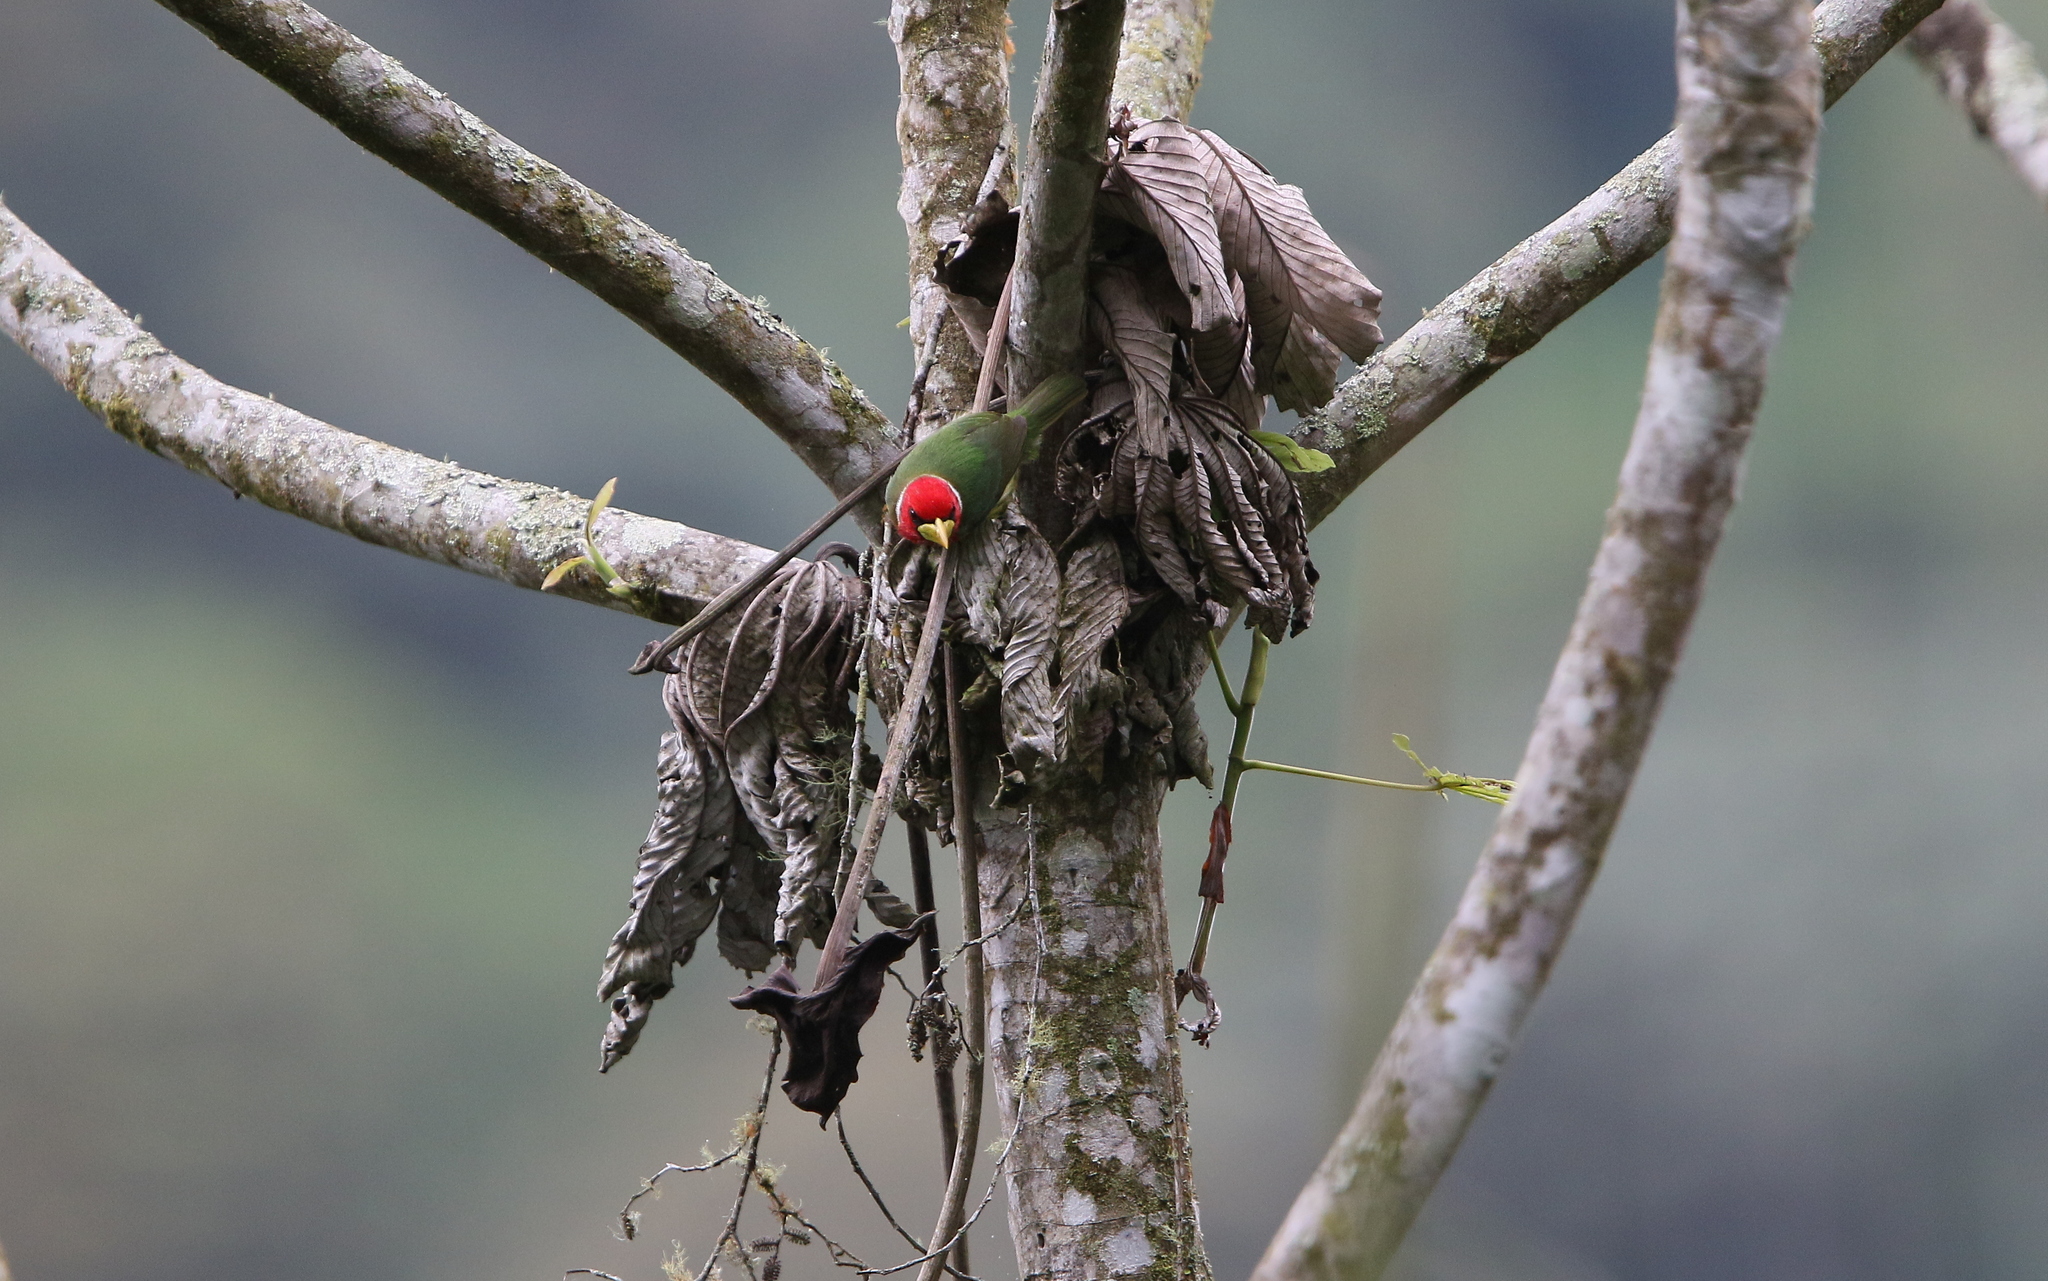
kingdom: Animalia
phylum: Chordata
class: Aves
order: Piciformes
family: Capitonidae
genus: Eubucco
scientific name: Eubucco bourcierii
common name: Red-headed barbet
